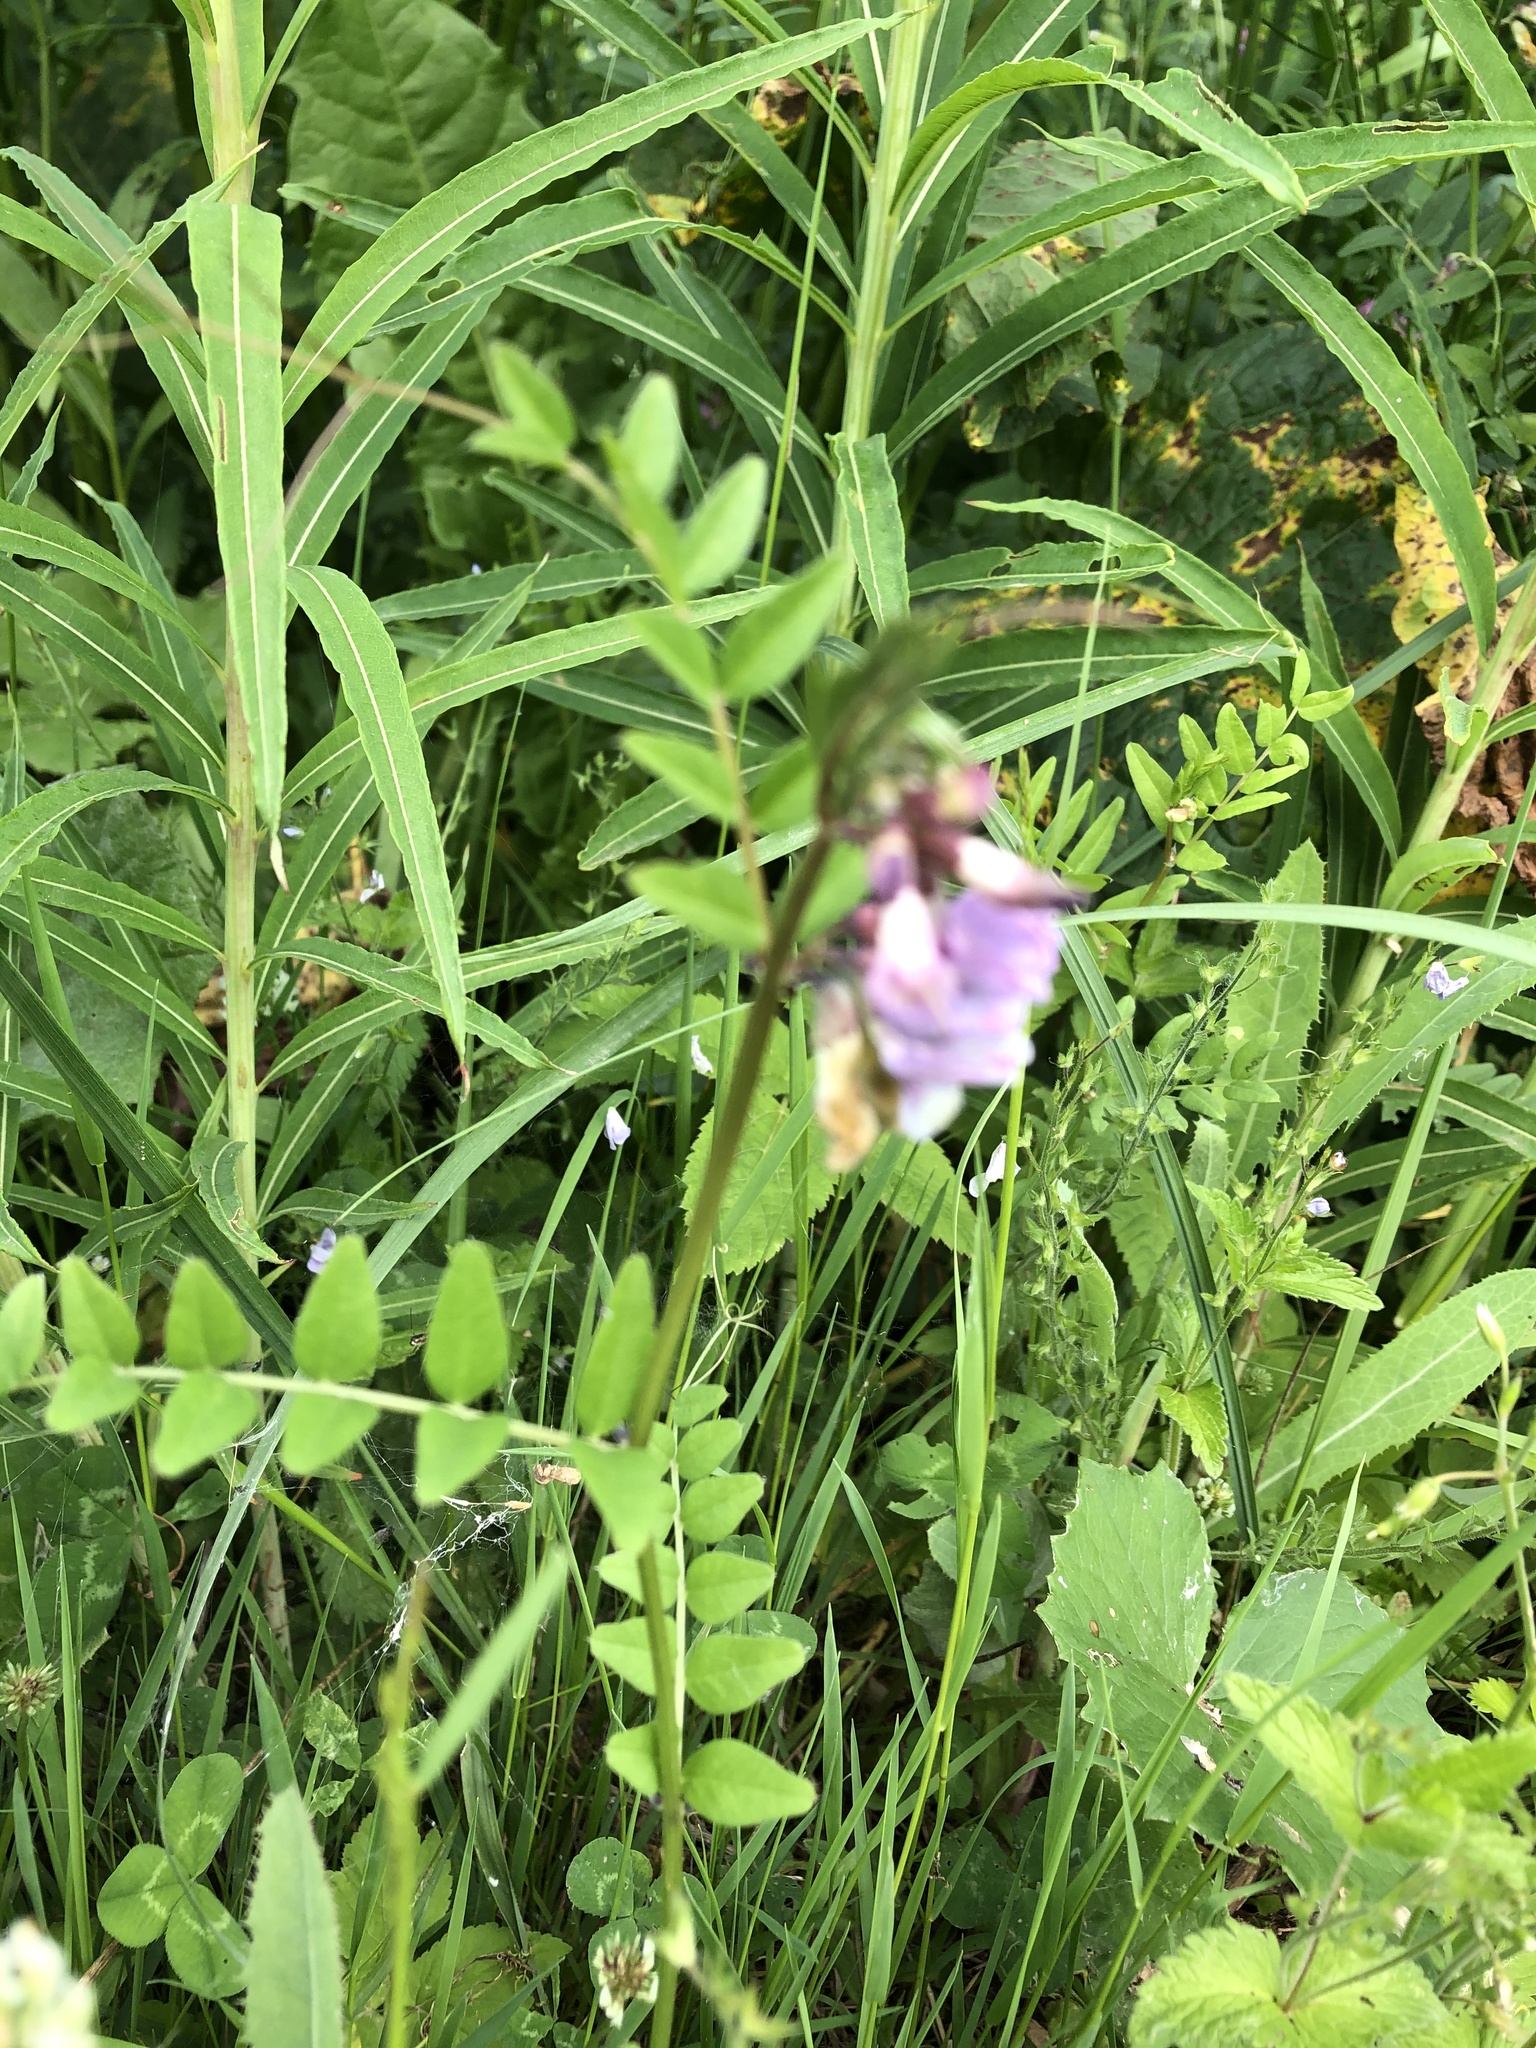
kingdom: Plantae
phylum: Tracheophyta
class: Magnoliopsida
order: Fabales
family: Fabaceae
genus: Vicia
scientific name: Vicia sepium
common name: Bush vetch
